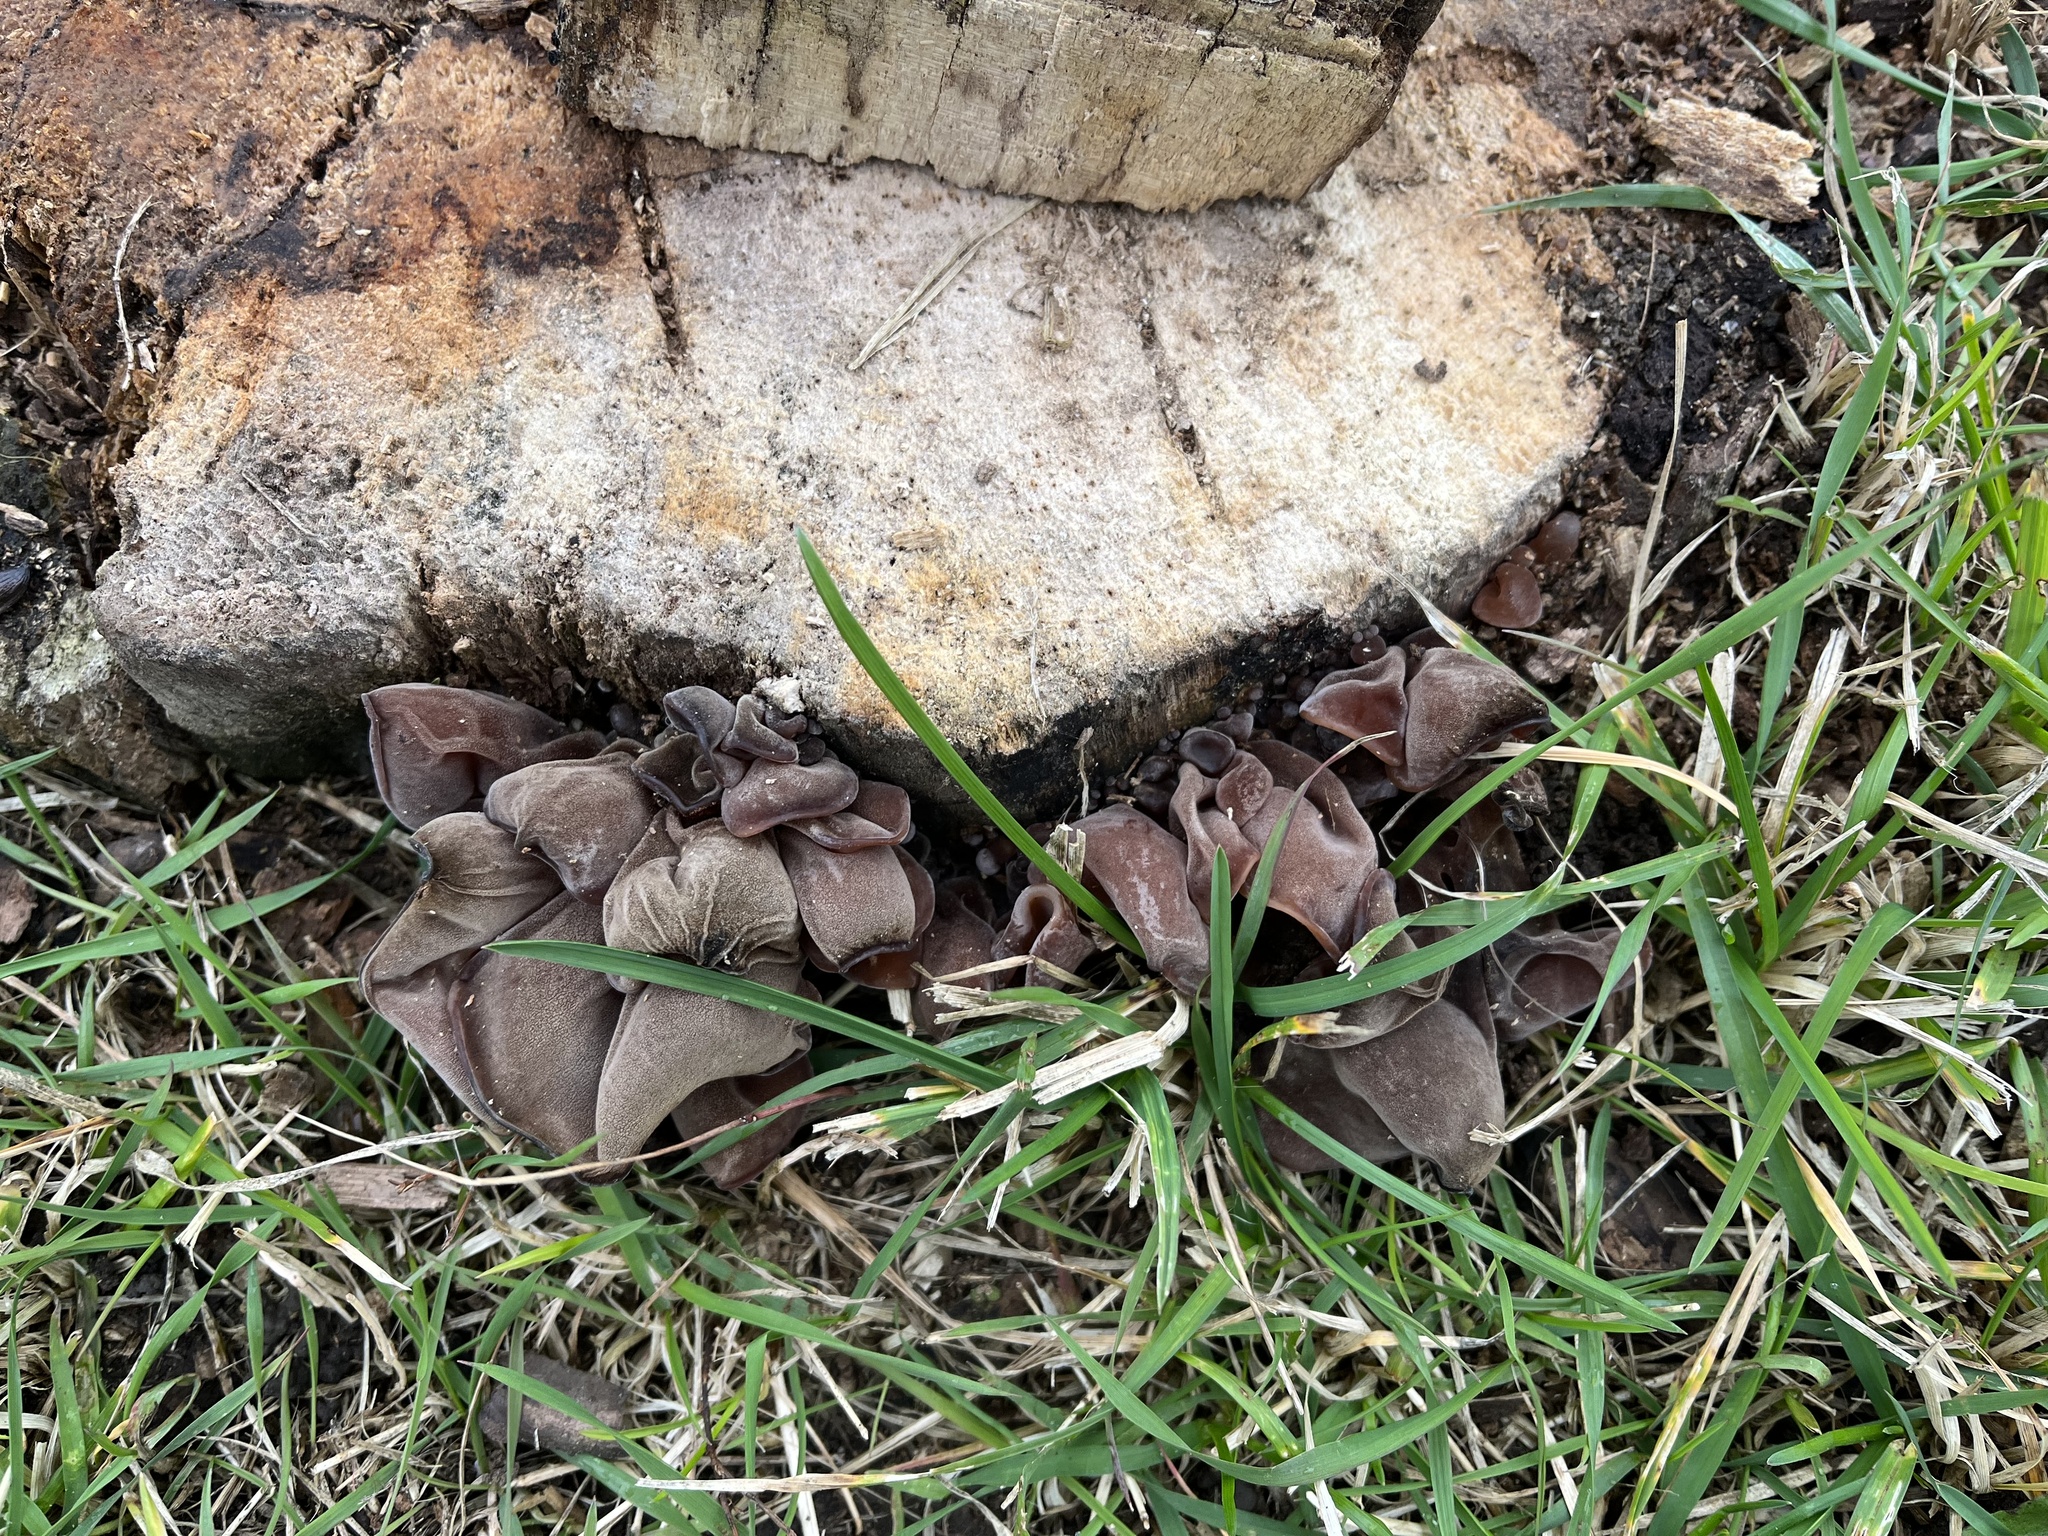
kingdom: Fungi
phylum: Basidiomycota
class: Agaricomycetes
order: Auriculariales
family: Auriculariaceae
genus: Auricularia
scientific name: Auricularia auricula-judae
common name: Jelly ear
